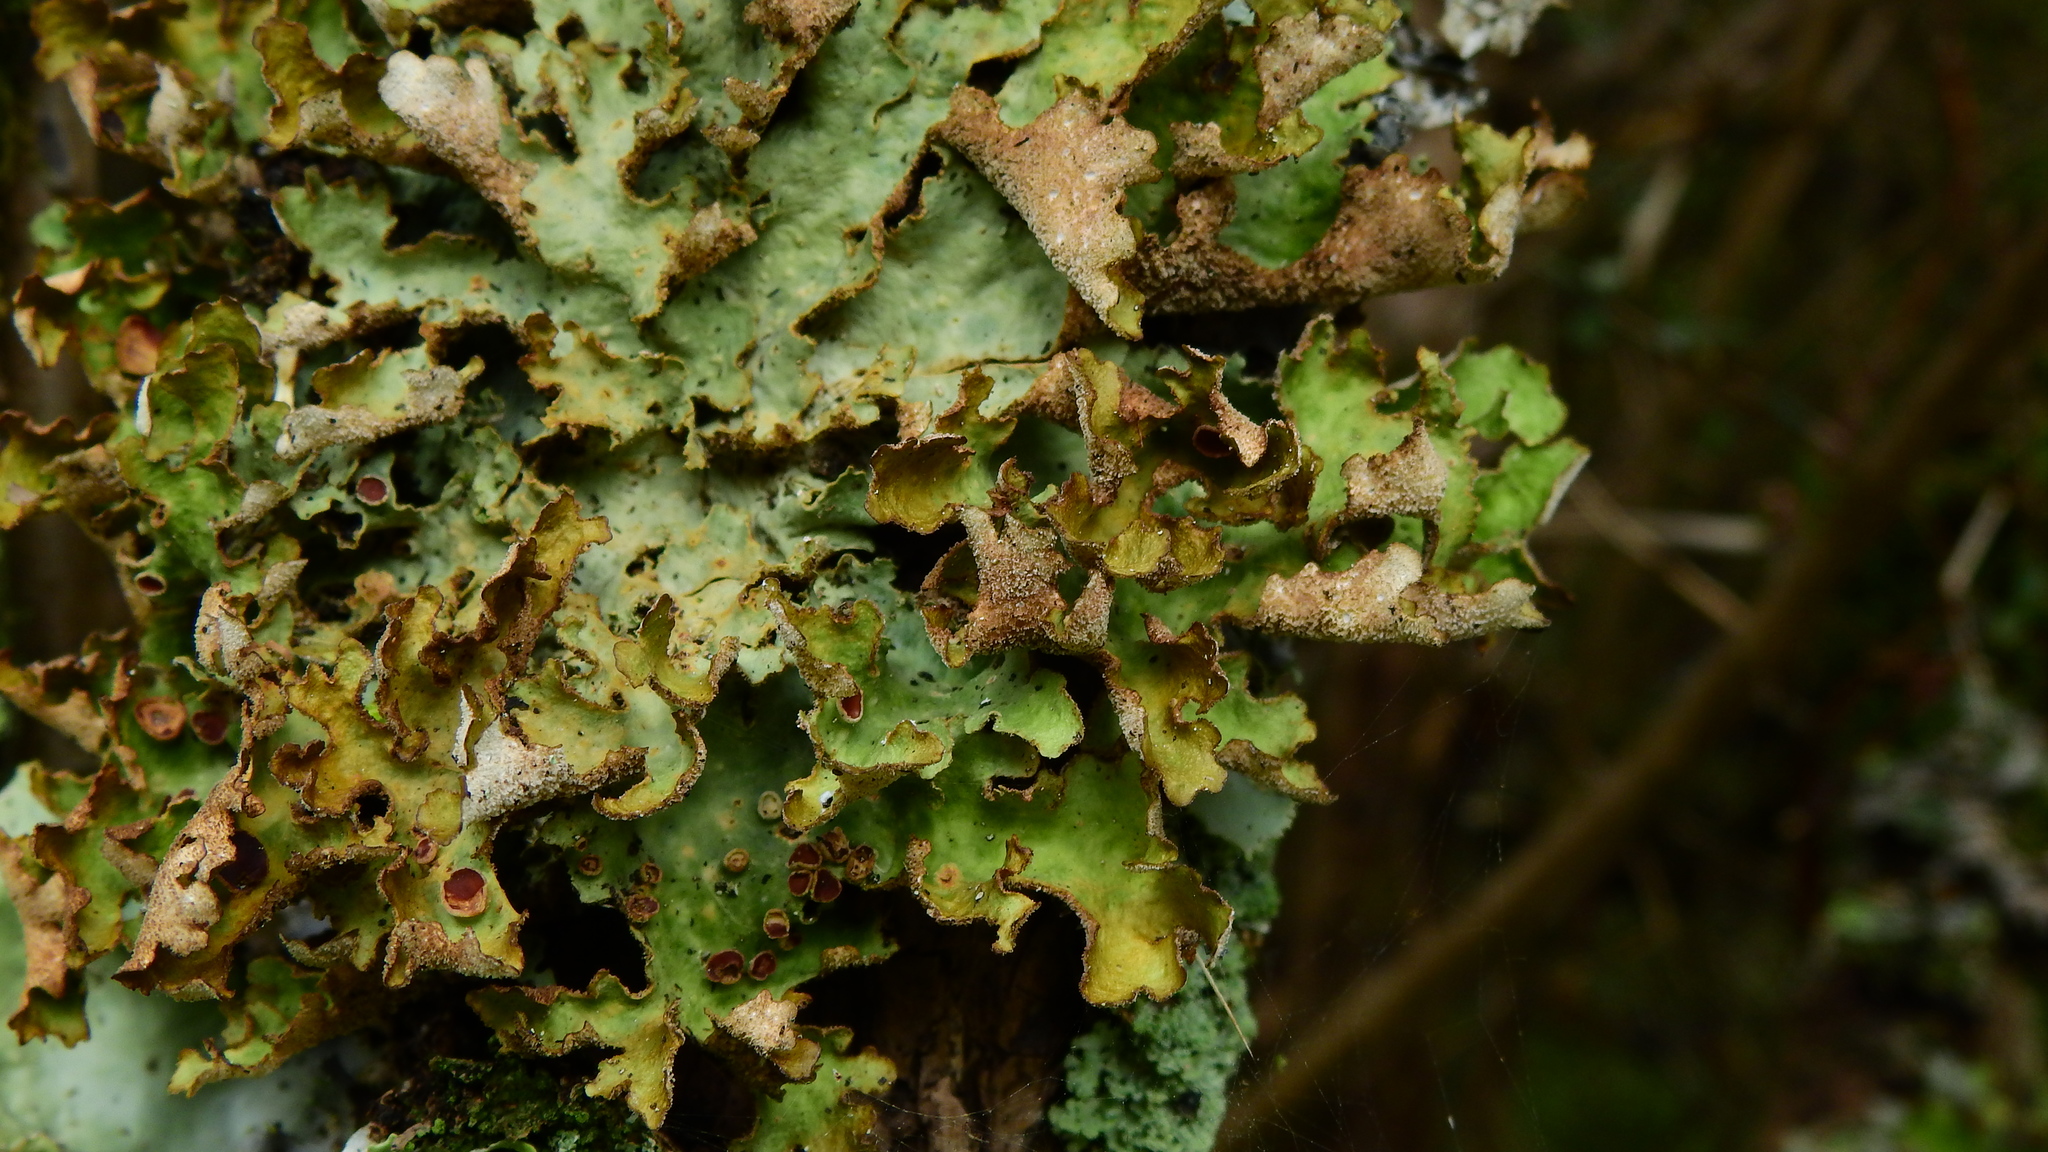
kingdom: Fungi
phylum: Ascomycota
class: Lecanoromycetes
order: Peltigerales
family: Lobariaceae
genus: Sticta
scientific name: Sticta cinereoglauca
